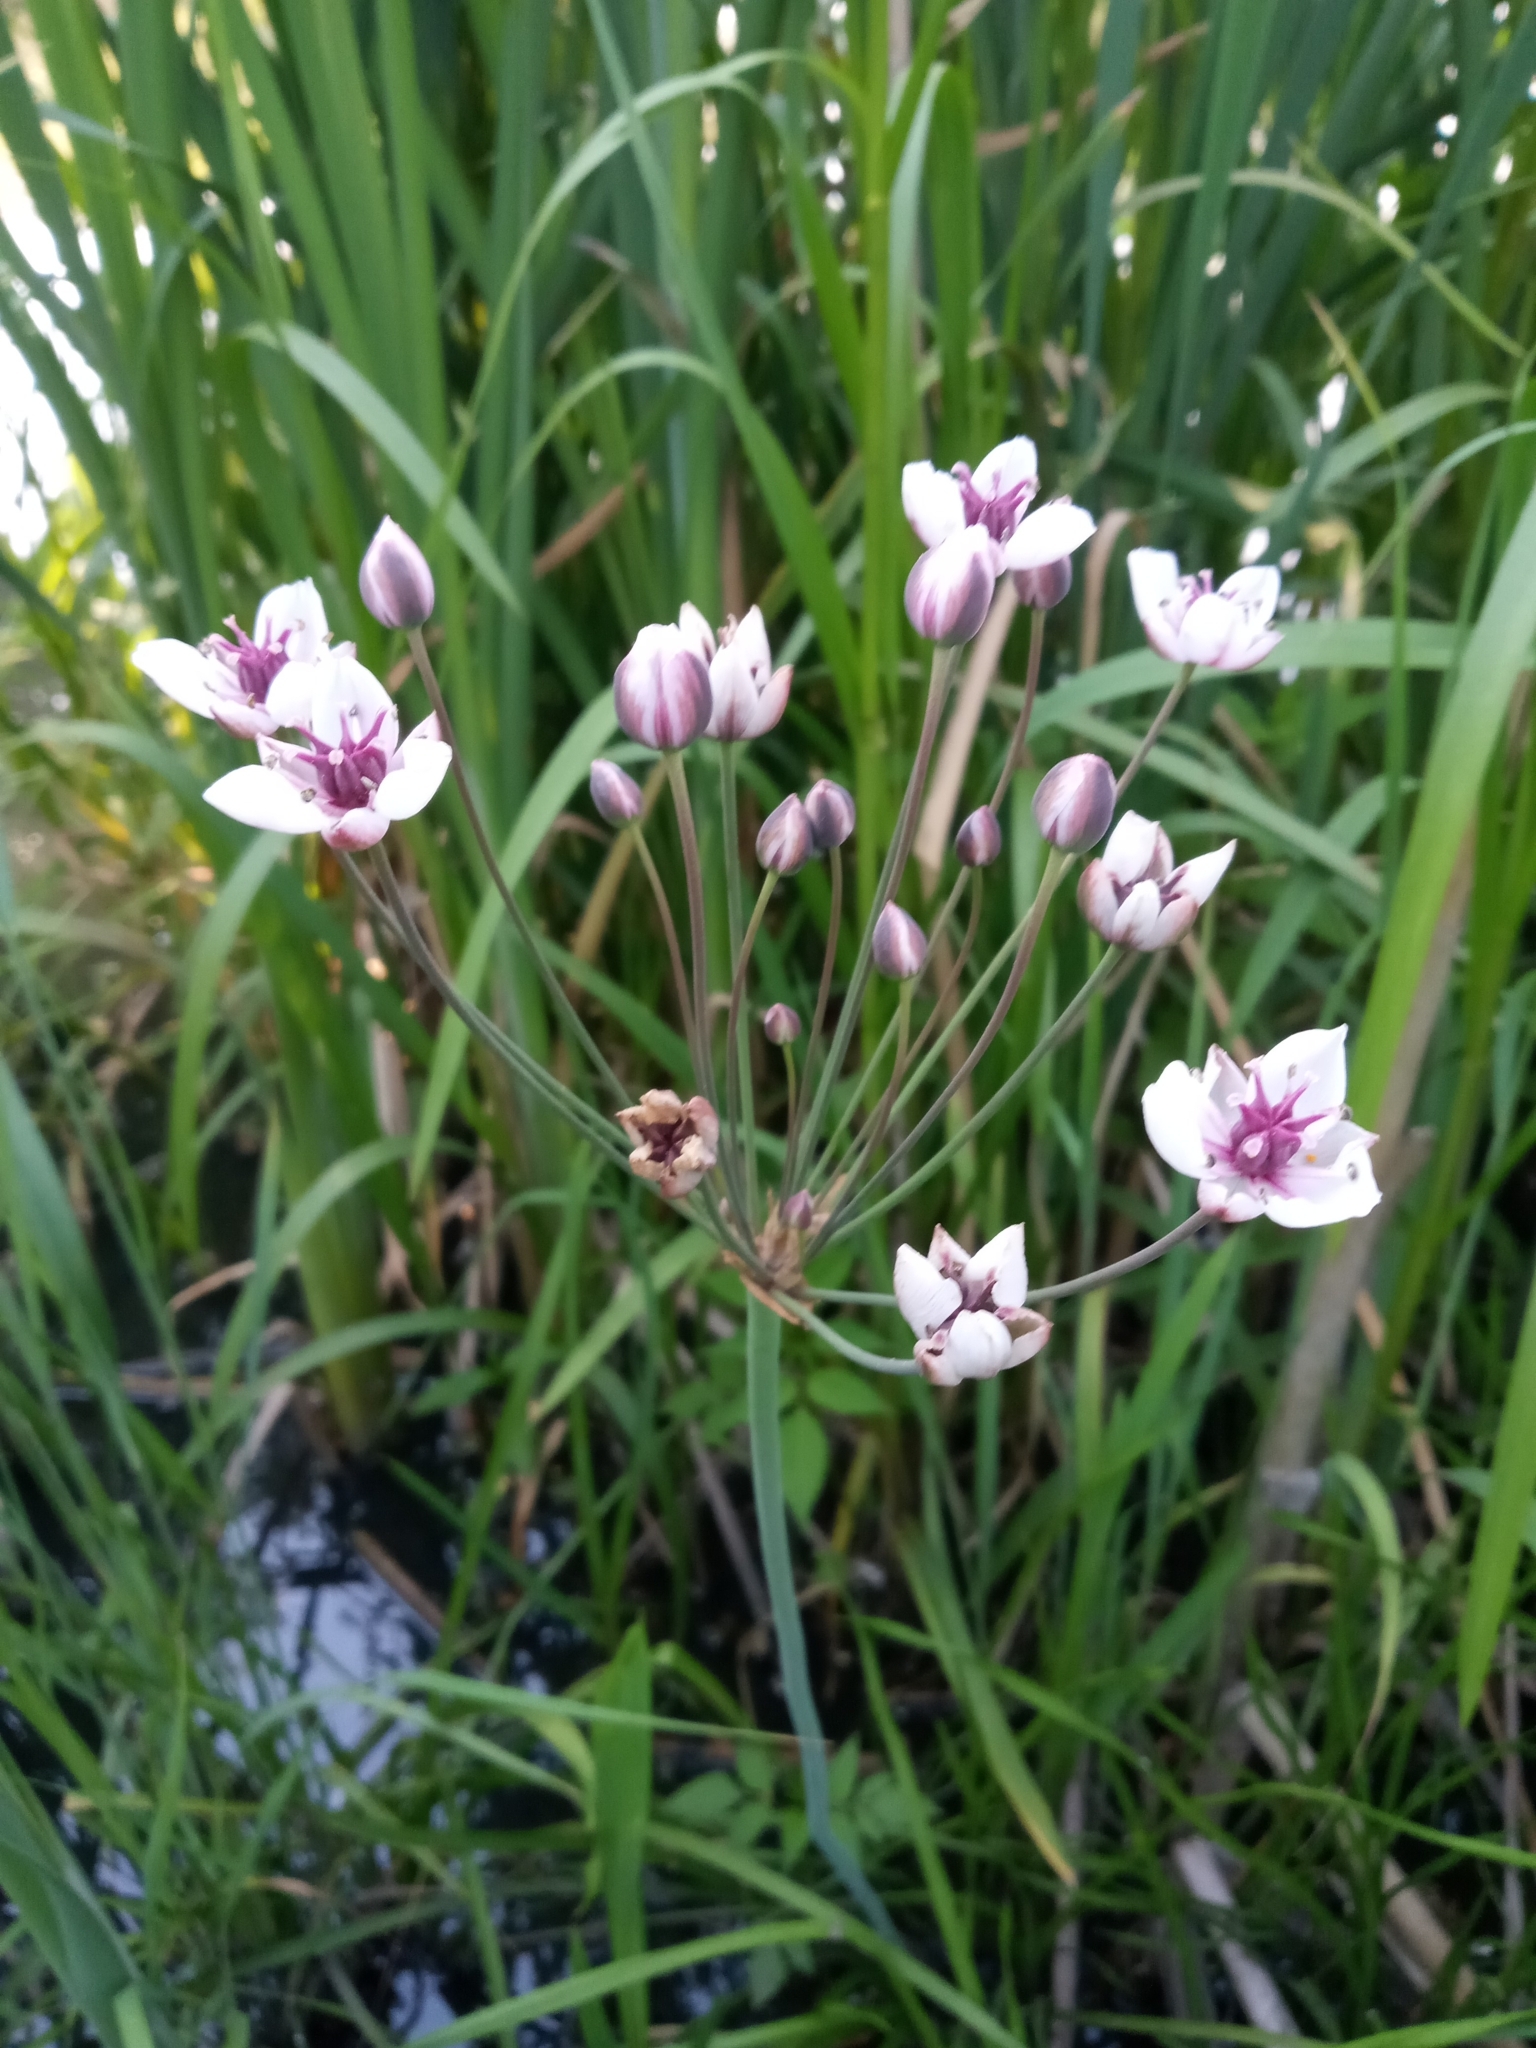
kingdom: Plantae
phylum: Tracheophyta
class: Liliopsida
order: Alismatales
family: Butomaceae
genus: Butomus
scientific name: Butomus umbellatus
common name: Flowering-rush
